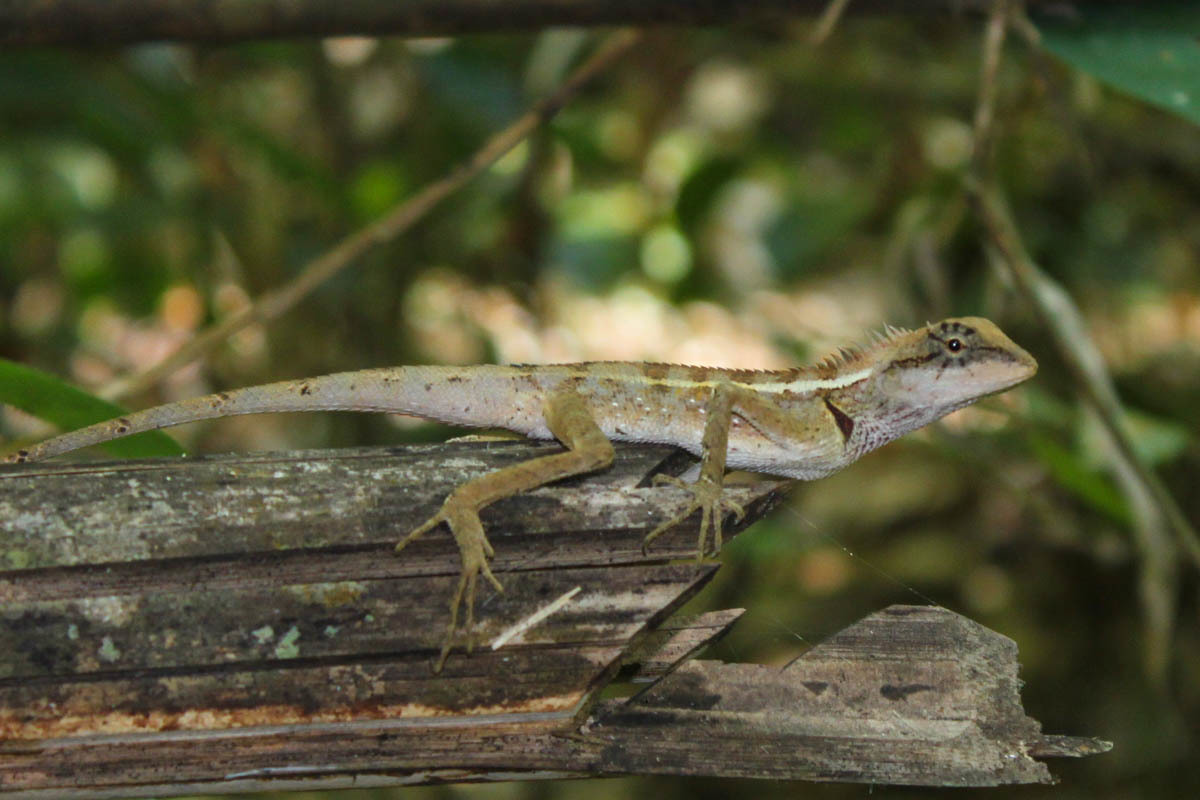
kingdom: Animalia
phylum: Chordata
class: Squamata
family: Agamidae
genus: Calotes
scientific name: Calotes emma
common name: Thailand bloodsucker
